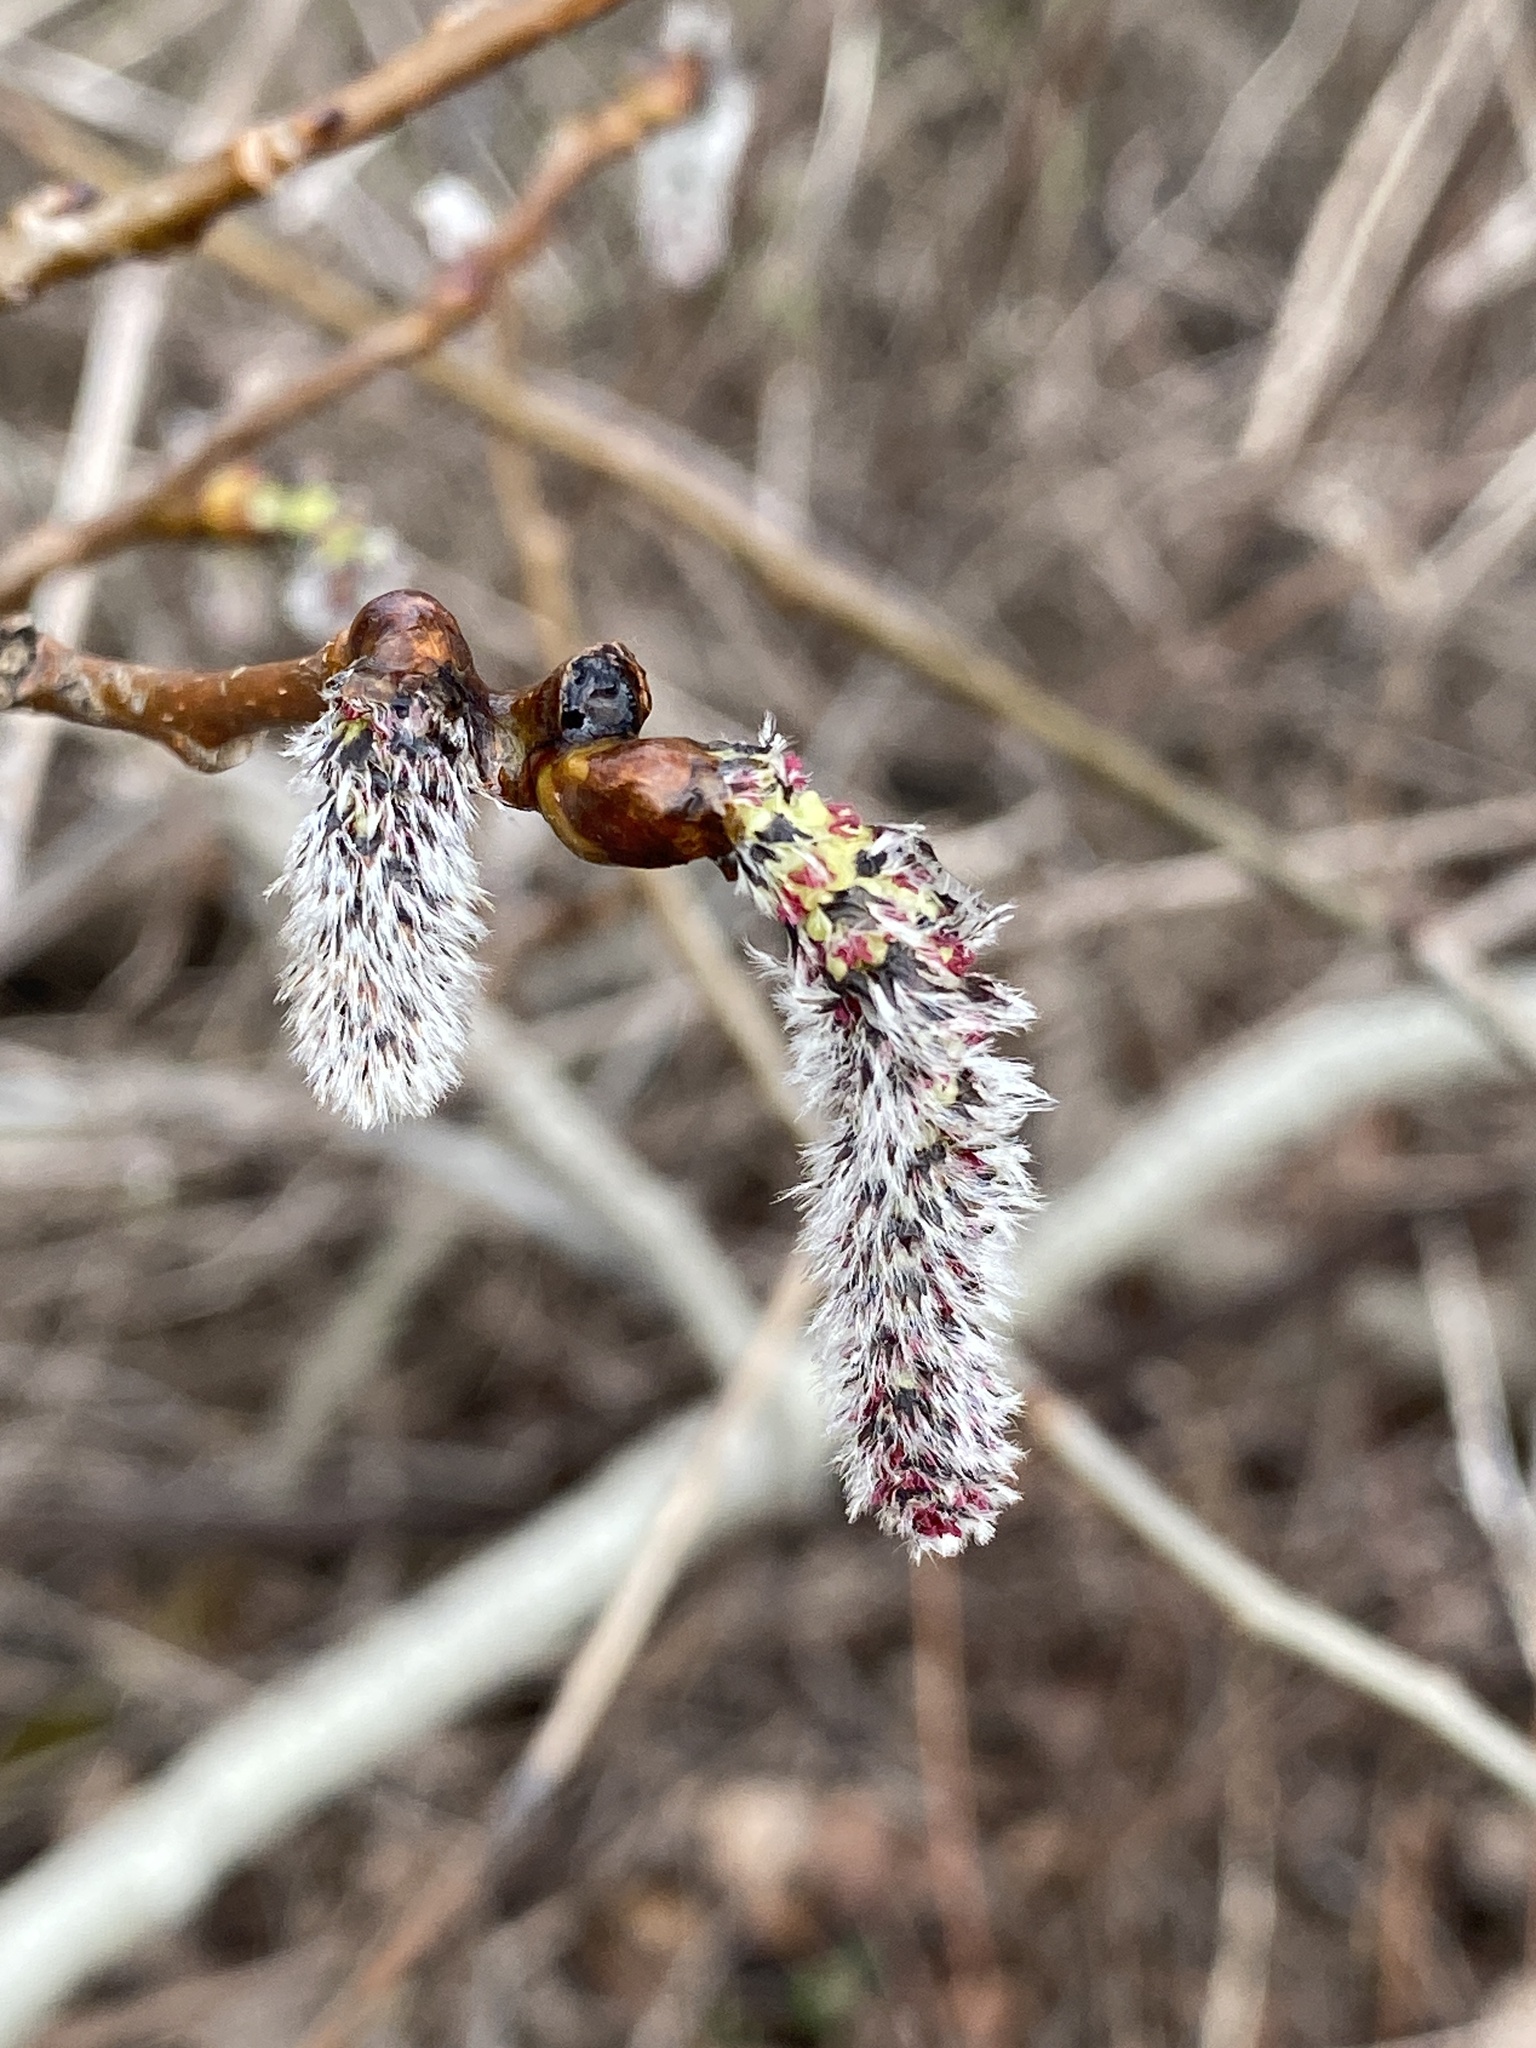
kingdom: Plantae
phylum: Tracheophyta
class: Magnoliopsida
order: Malpighiales
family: Salicaceae
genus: Populus
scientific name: Populus deltoides
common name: Eastern cottonwood
